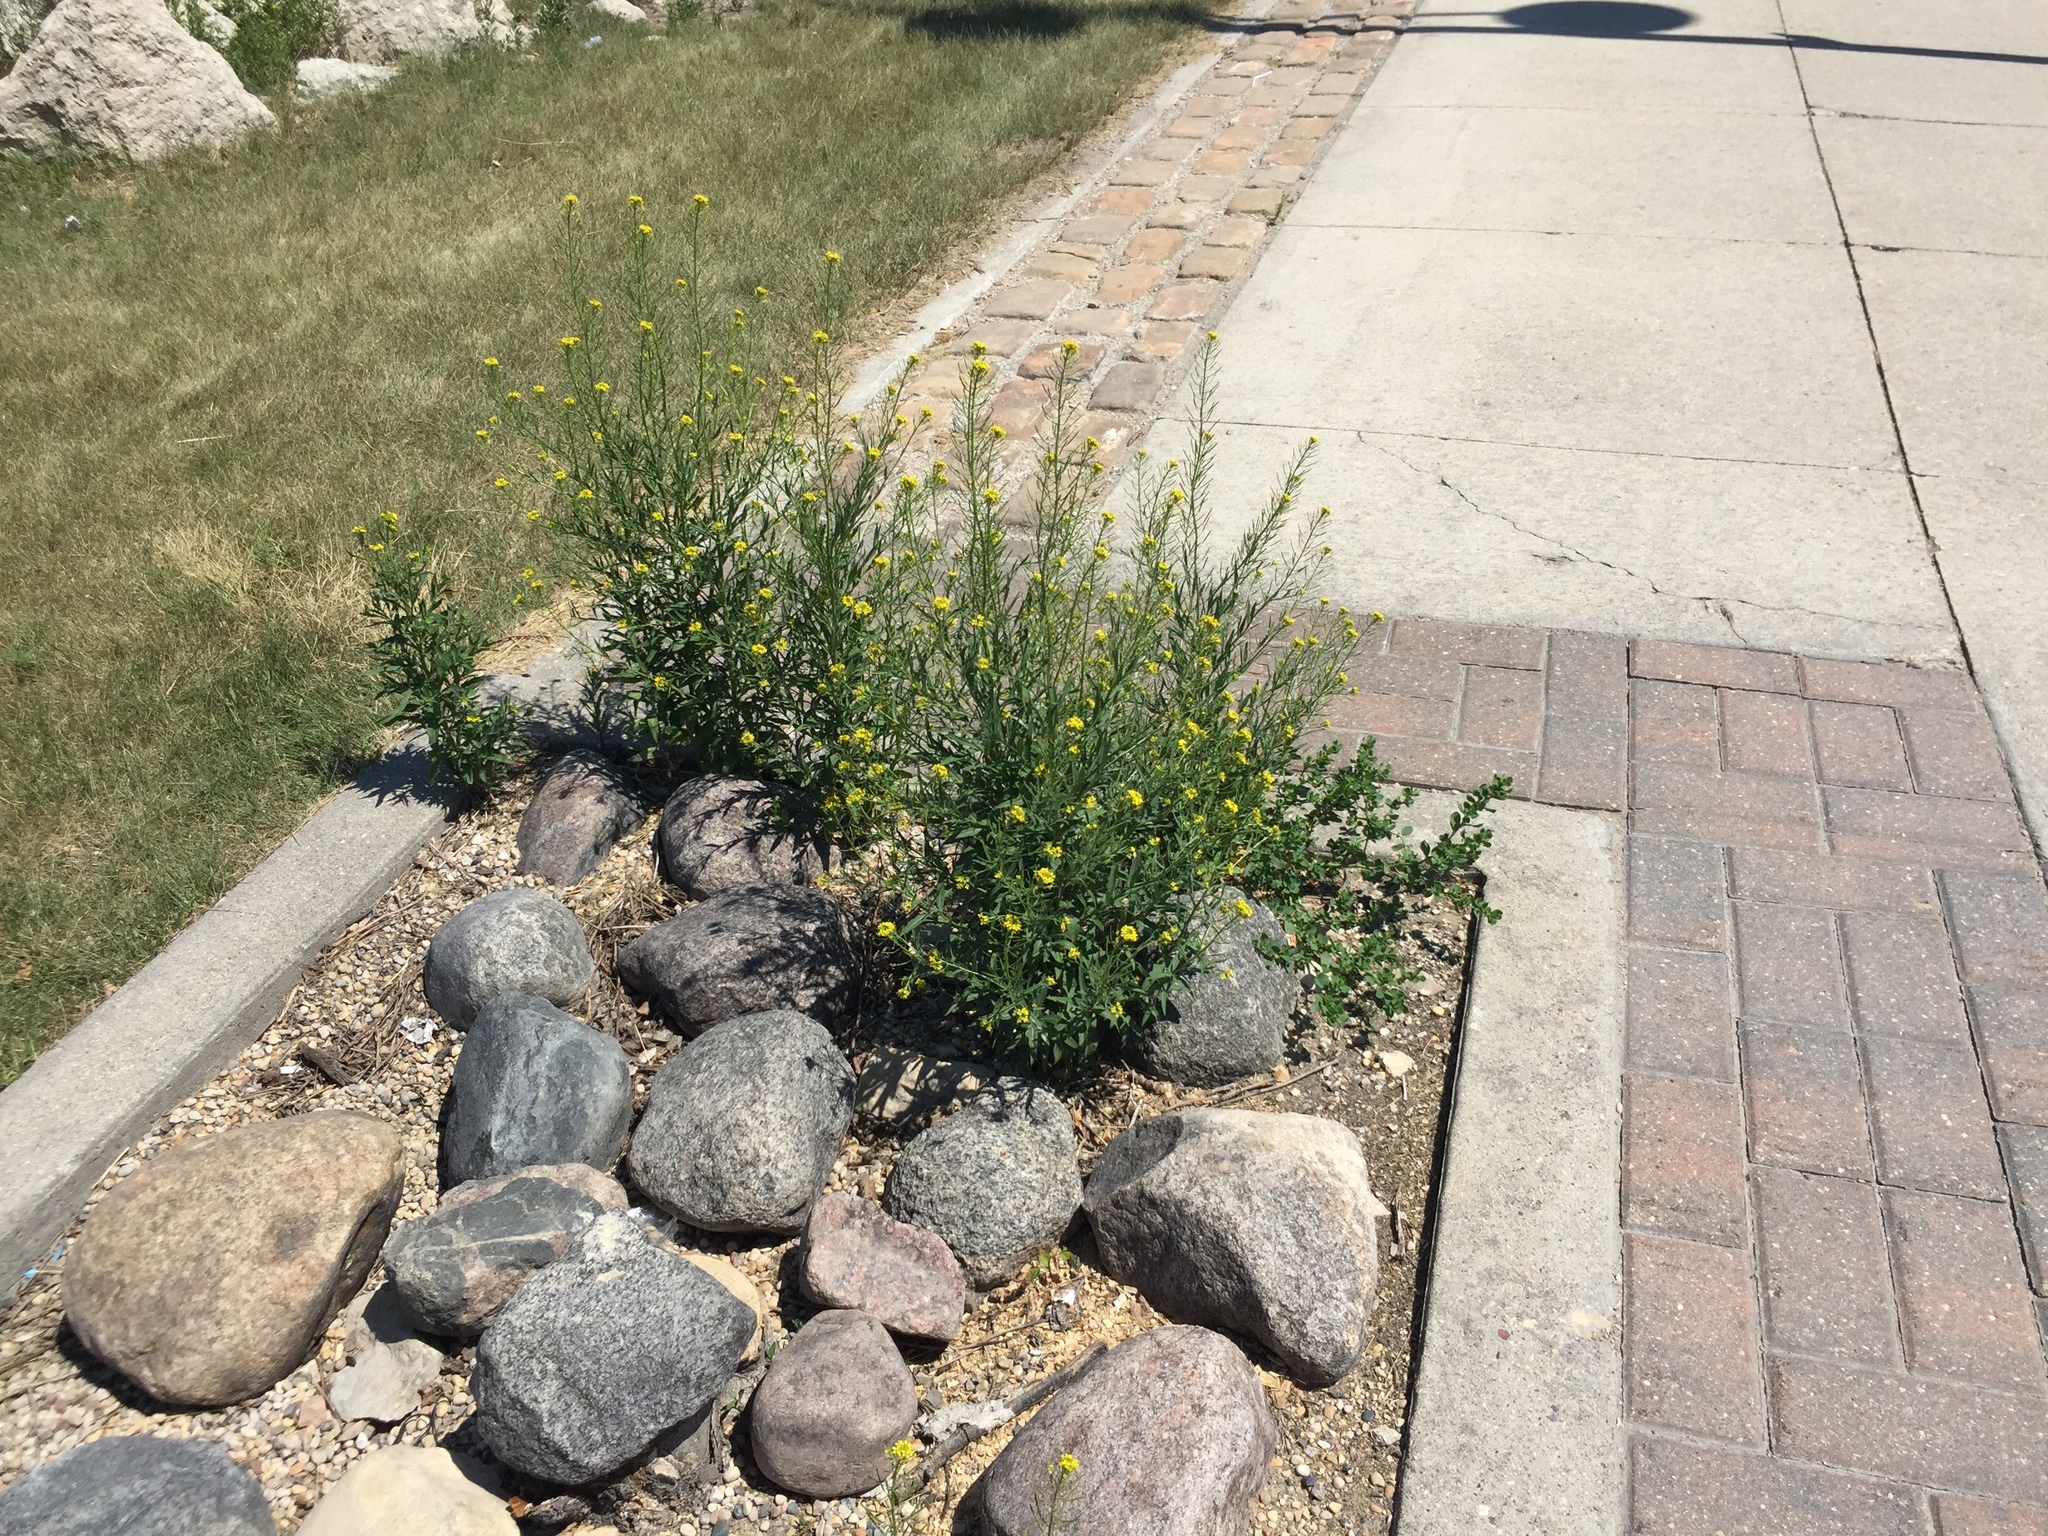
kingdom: Plantae
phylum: Tracheophyta
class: Magnoliopsida
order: Brassicales
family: Brassicaceae
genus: Erysimum
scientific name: Erysimum cheiranthoides
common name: Treacle mustard
